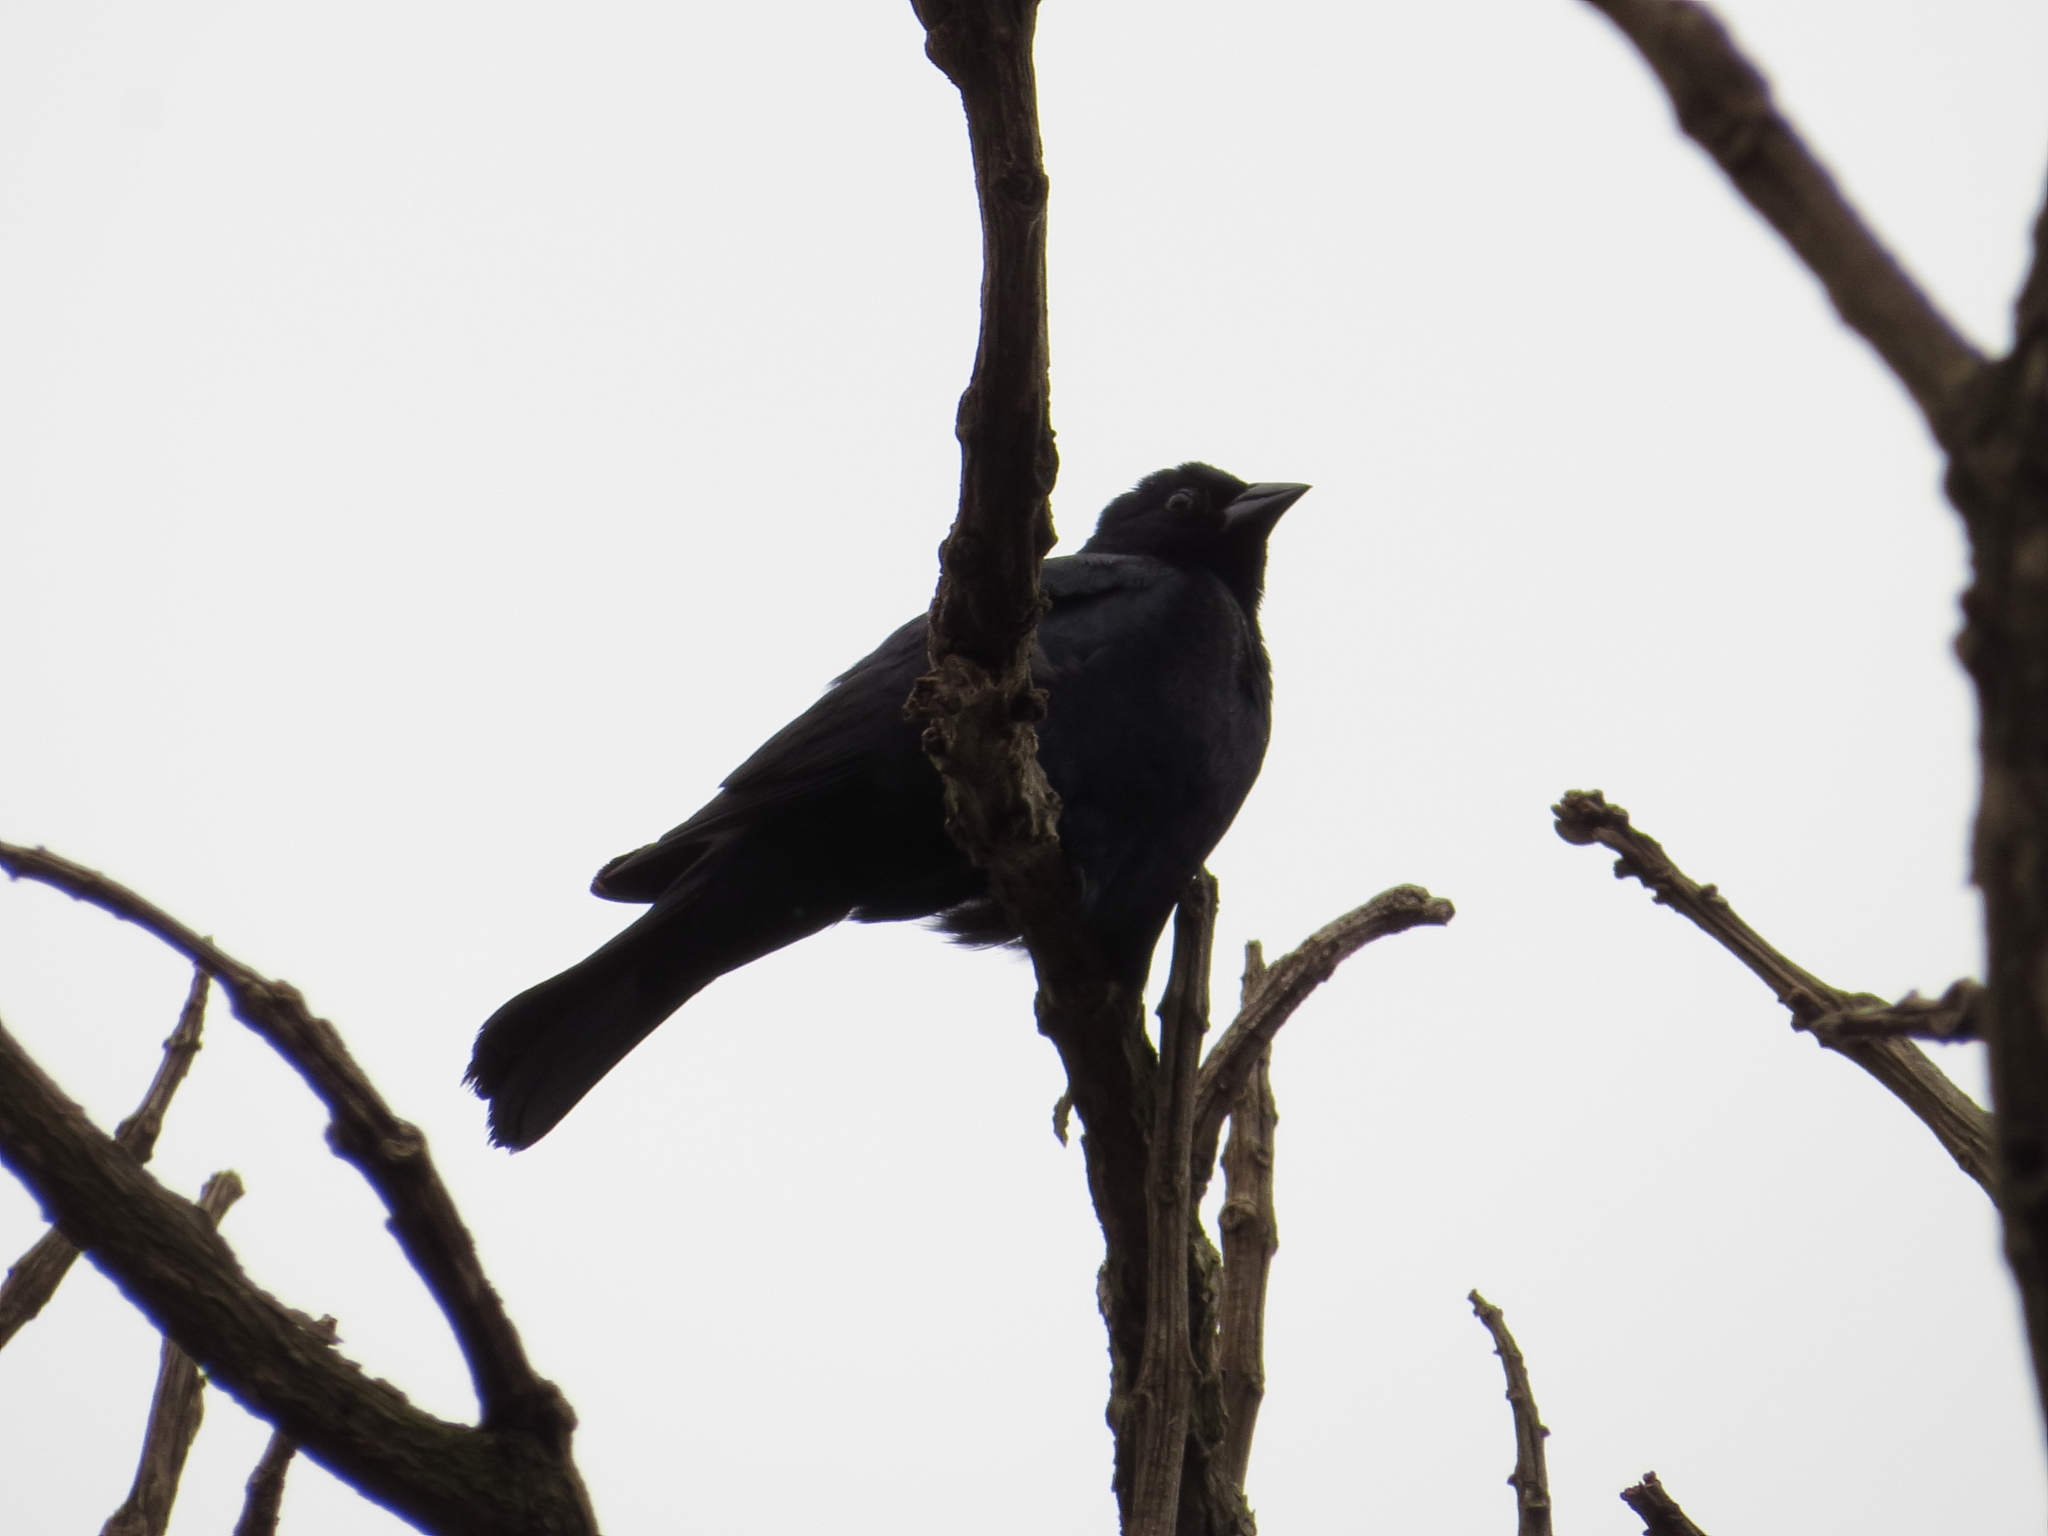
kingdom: Animalia
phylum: Chordata
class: Aves
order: Passeriformes
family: Icteridae
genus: Molothrus
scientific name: Molothrus bonariensis
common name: Shiny cowbird
